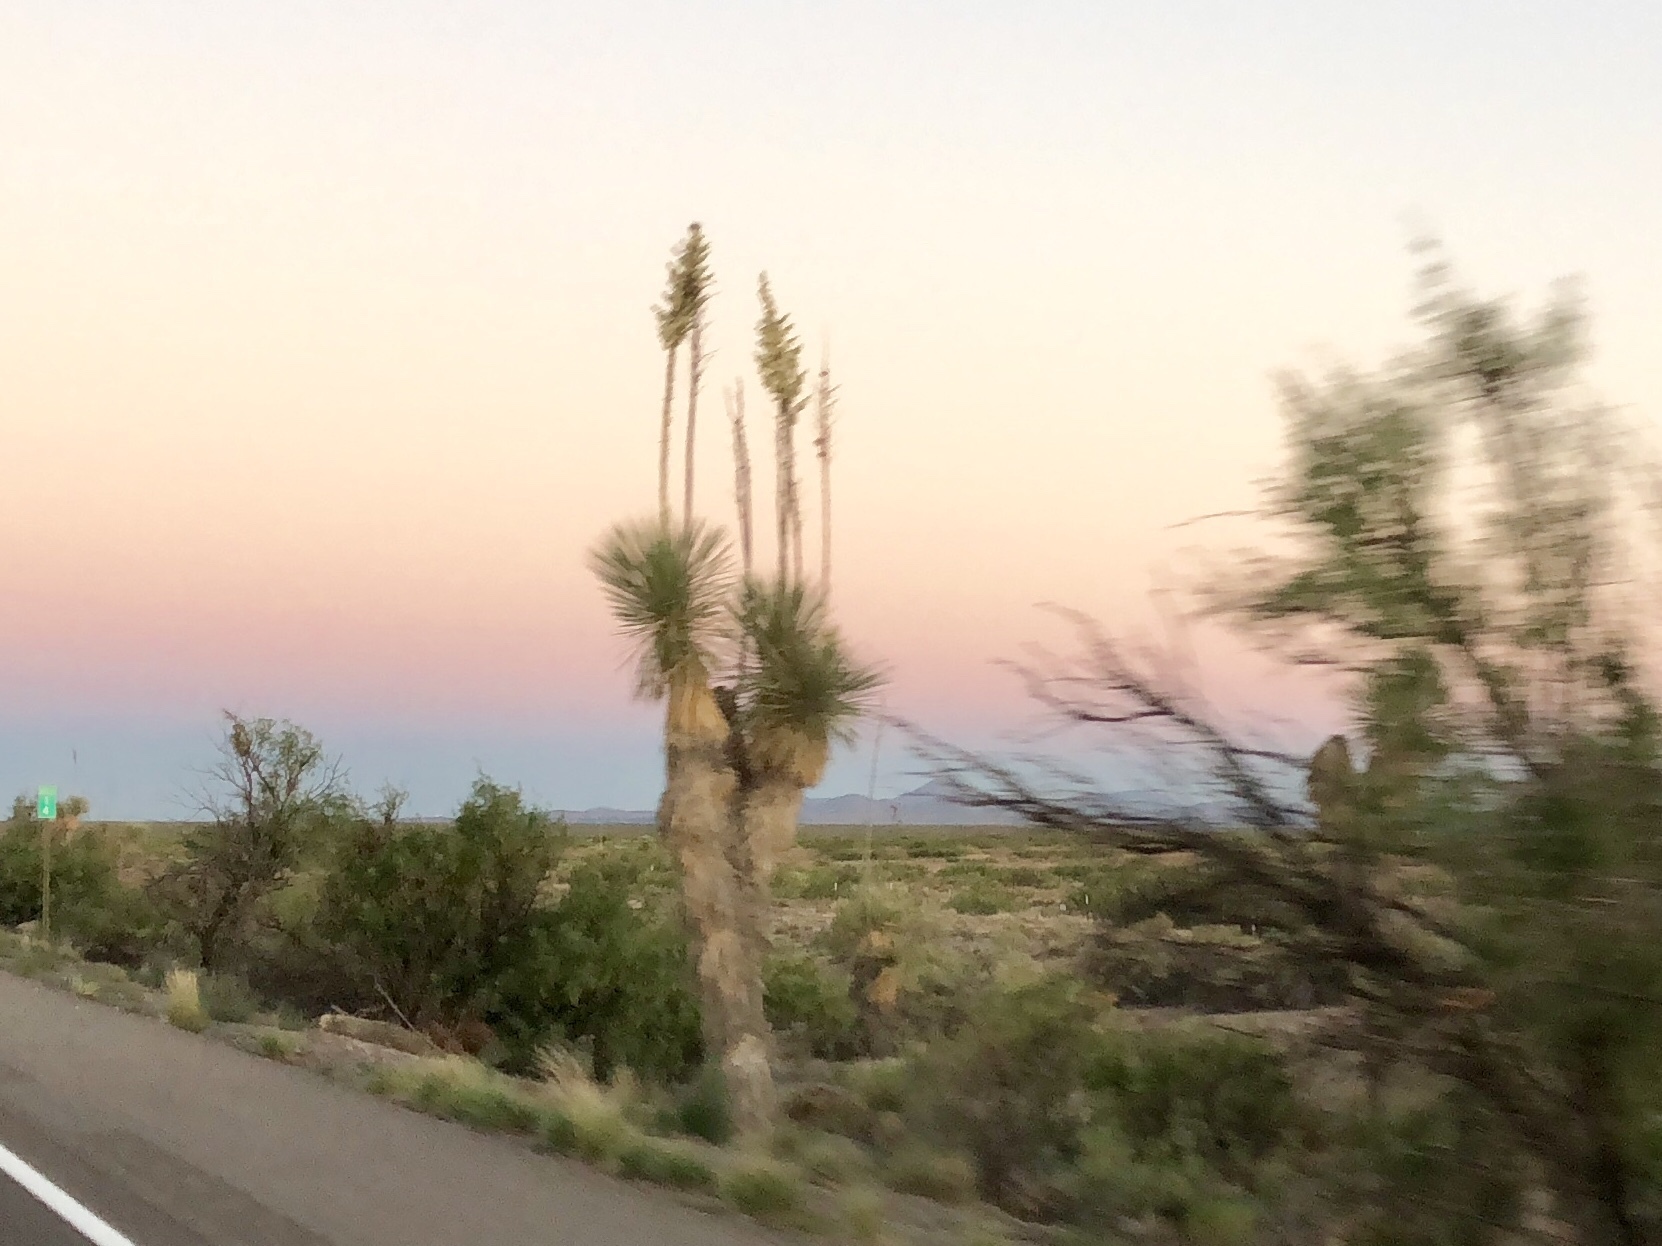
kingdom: Plantae
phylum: Tracheophyta
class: Liliopsida
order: Asparagales
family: Asparagaceae
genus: Yucca
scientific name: Yucca elata
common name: Palmella
